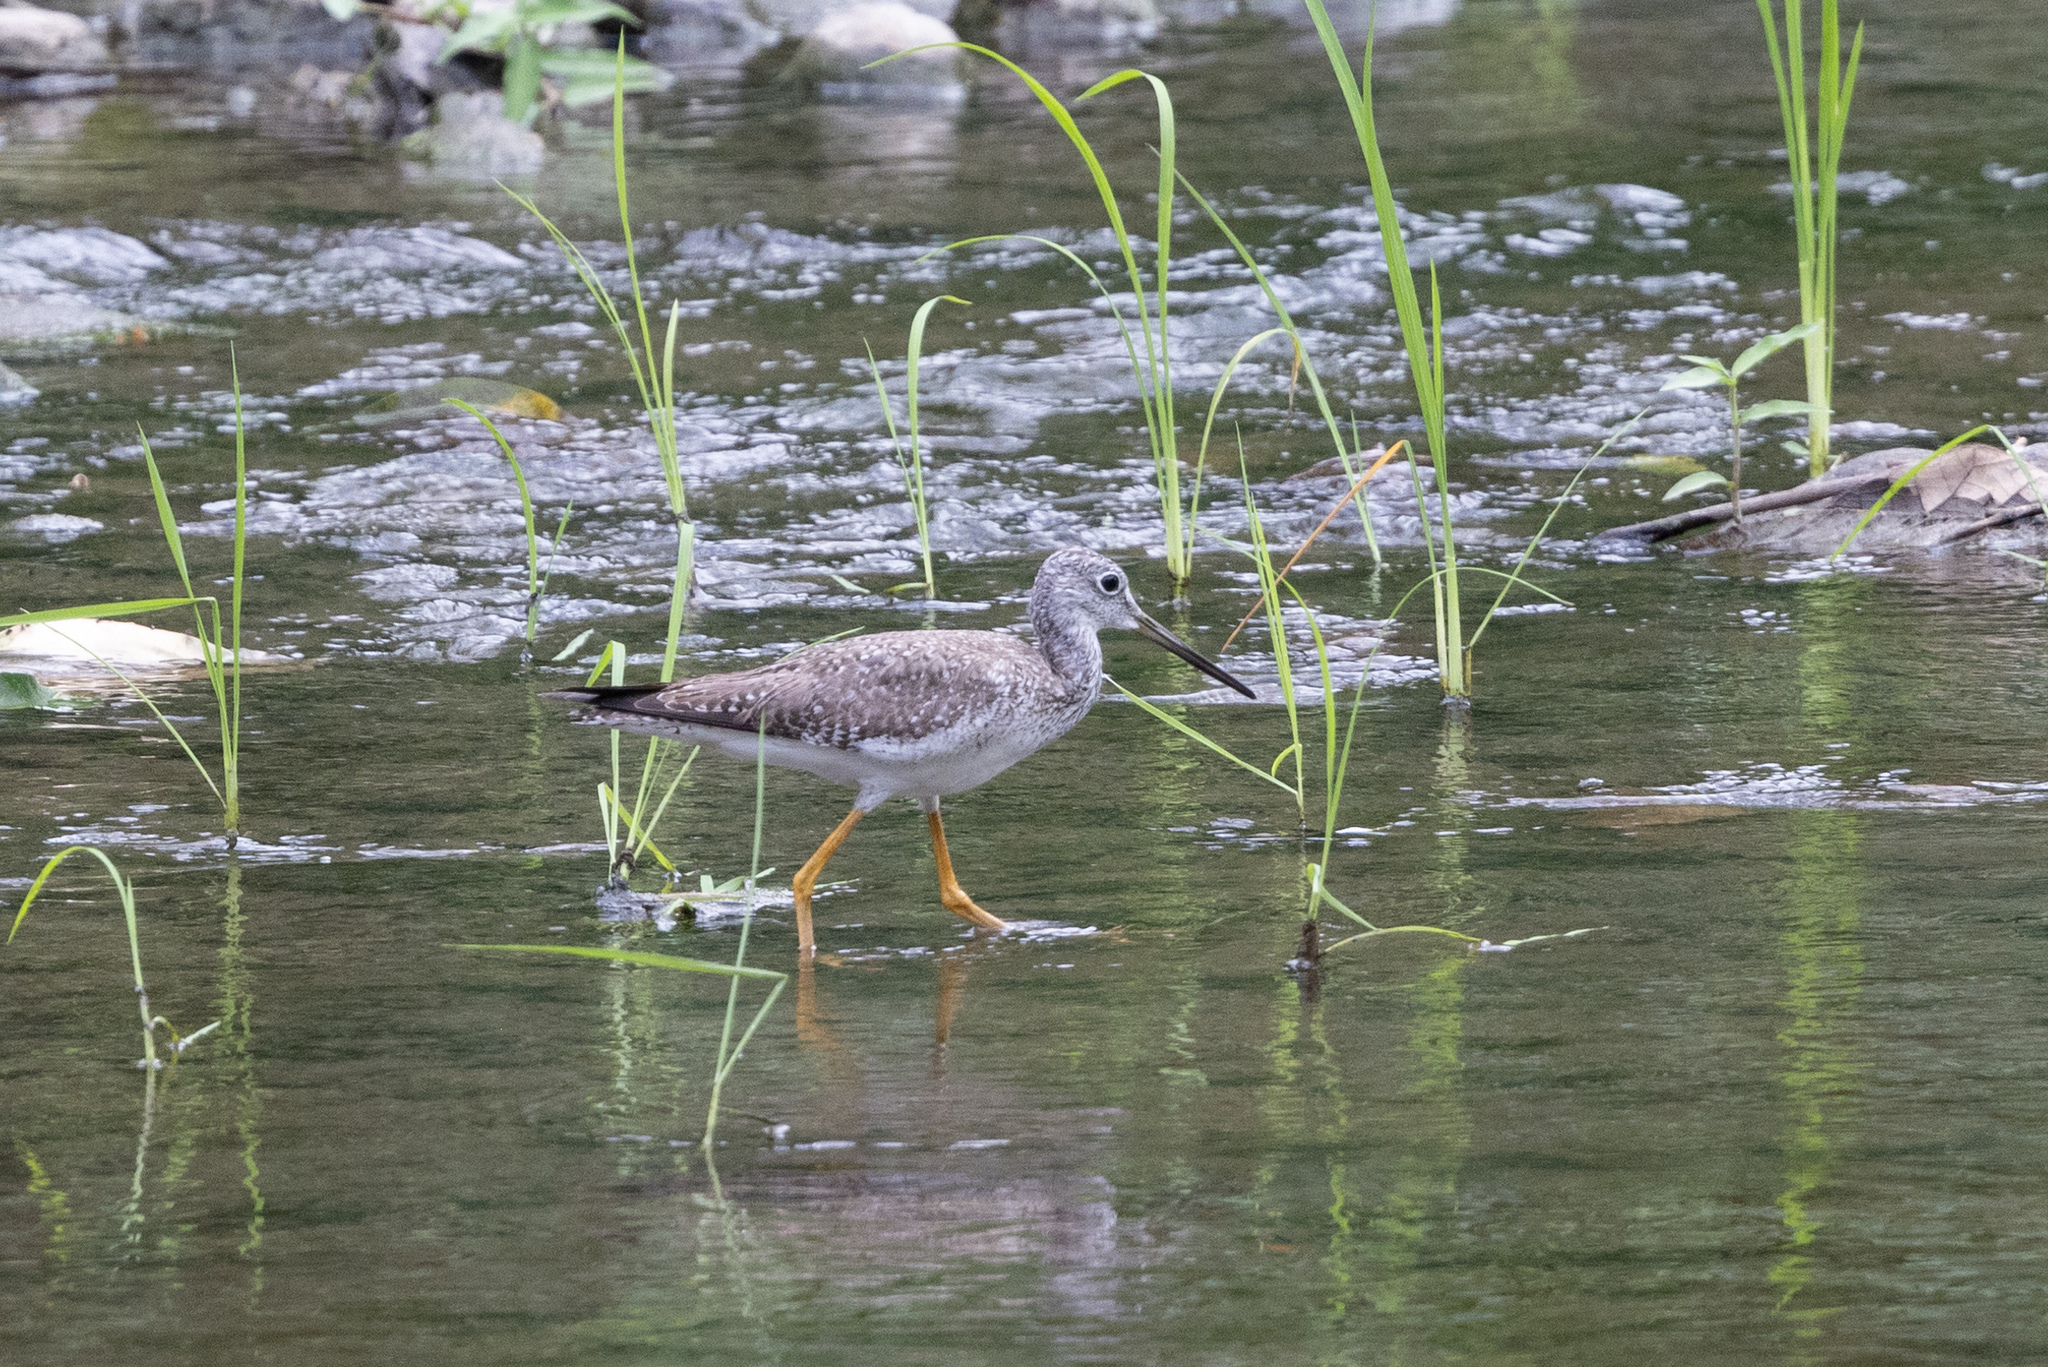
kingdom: Animalia
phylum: Chordata
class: Aves
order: Charadriiformes
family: Scolopacidae
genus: Tringa
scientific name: Tringa melanoleuca
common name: Greater yellowlegs
